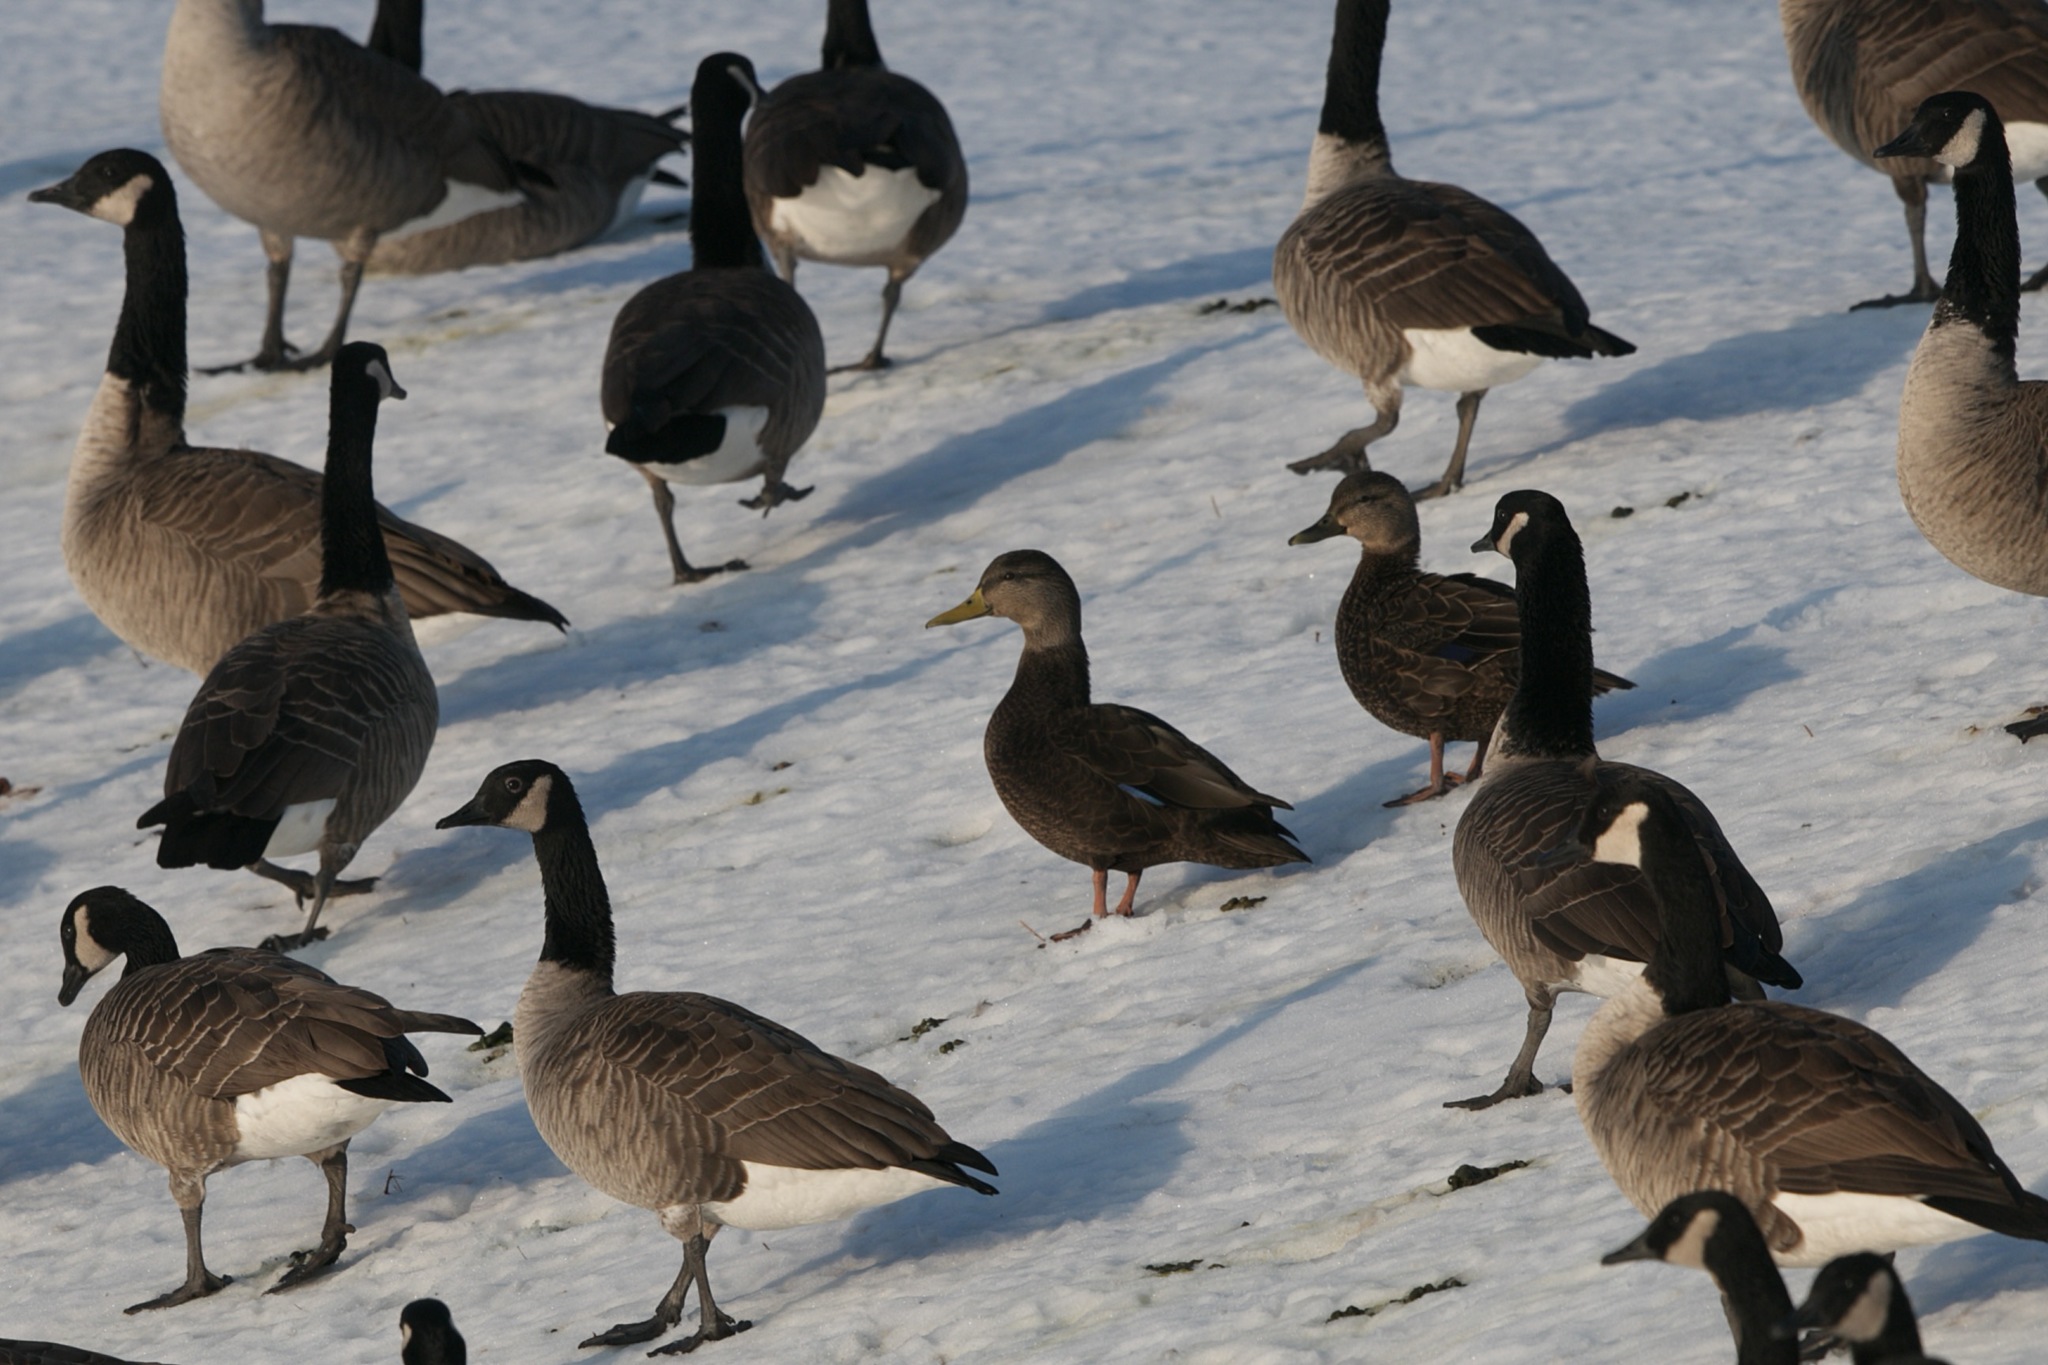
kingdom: Animalia
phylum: Chordata
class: Aves
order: Anseriformes
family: Anatidae
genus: Branta
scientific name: Branta canadensis
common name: Canada goose
